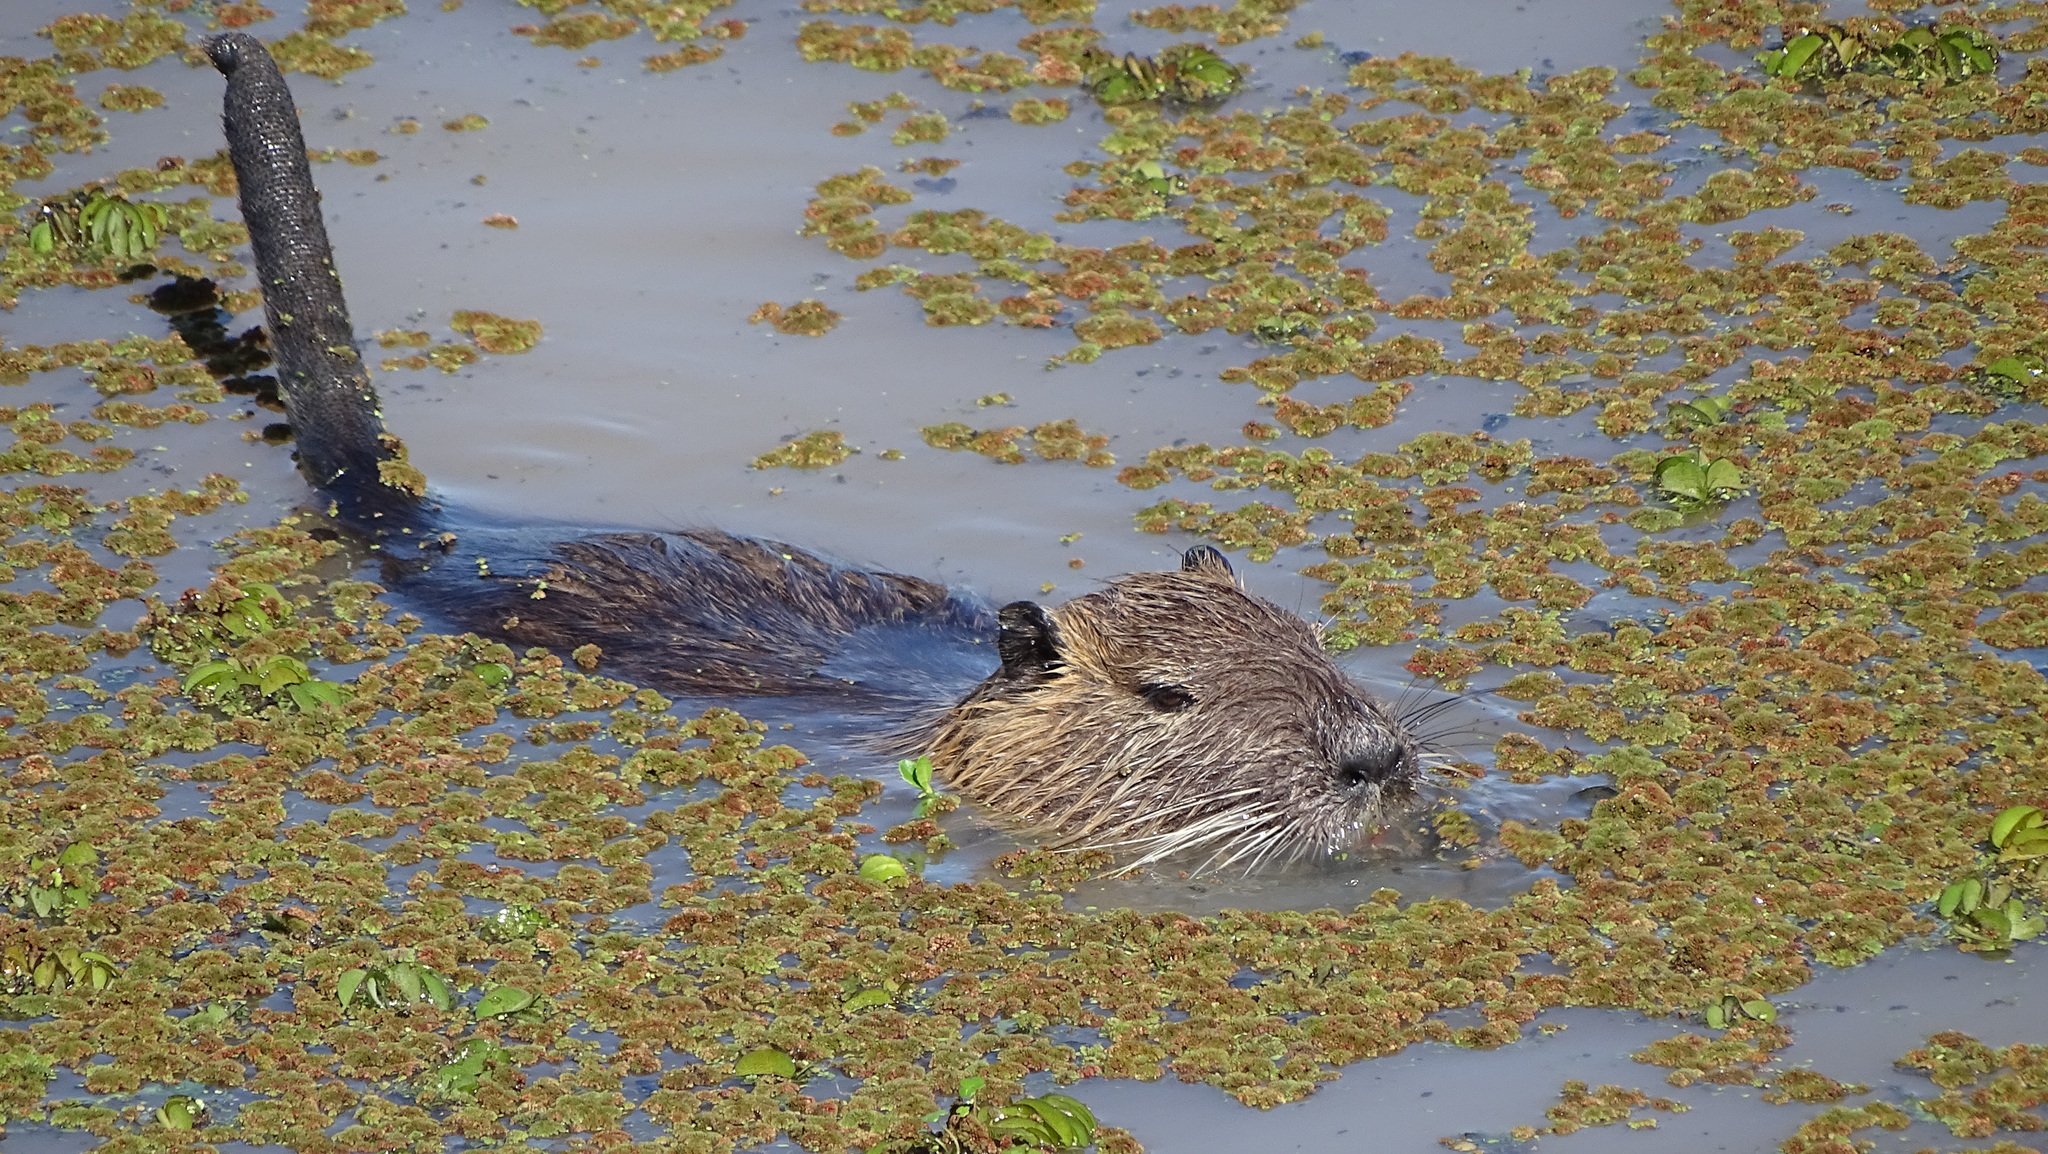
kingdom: Animalia
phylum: Chordata
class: Mammalia
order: Rodentia
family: Myocastoridae
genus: Myocastor
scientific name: Myocastor coypus
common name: Coypu
